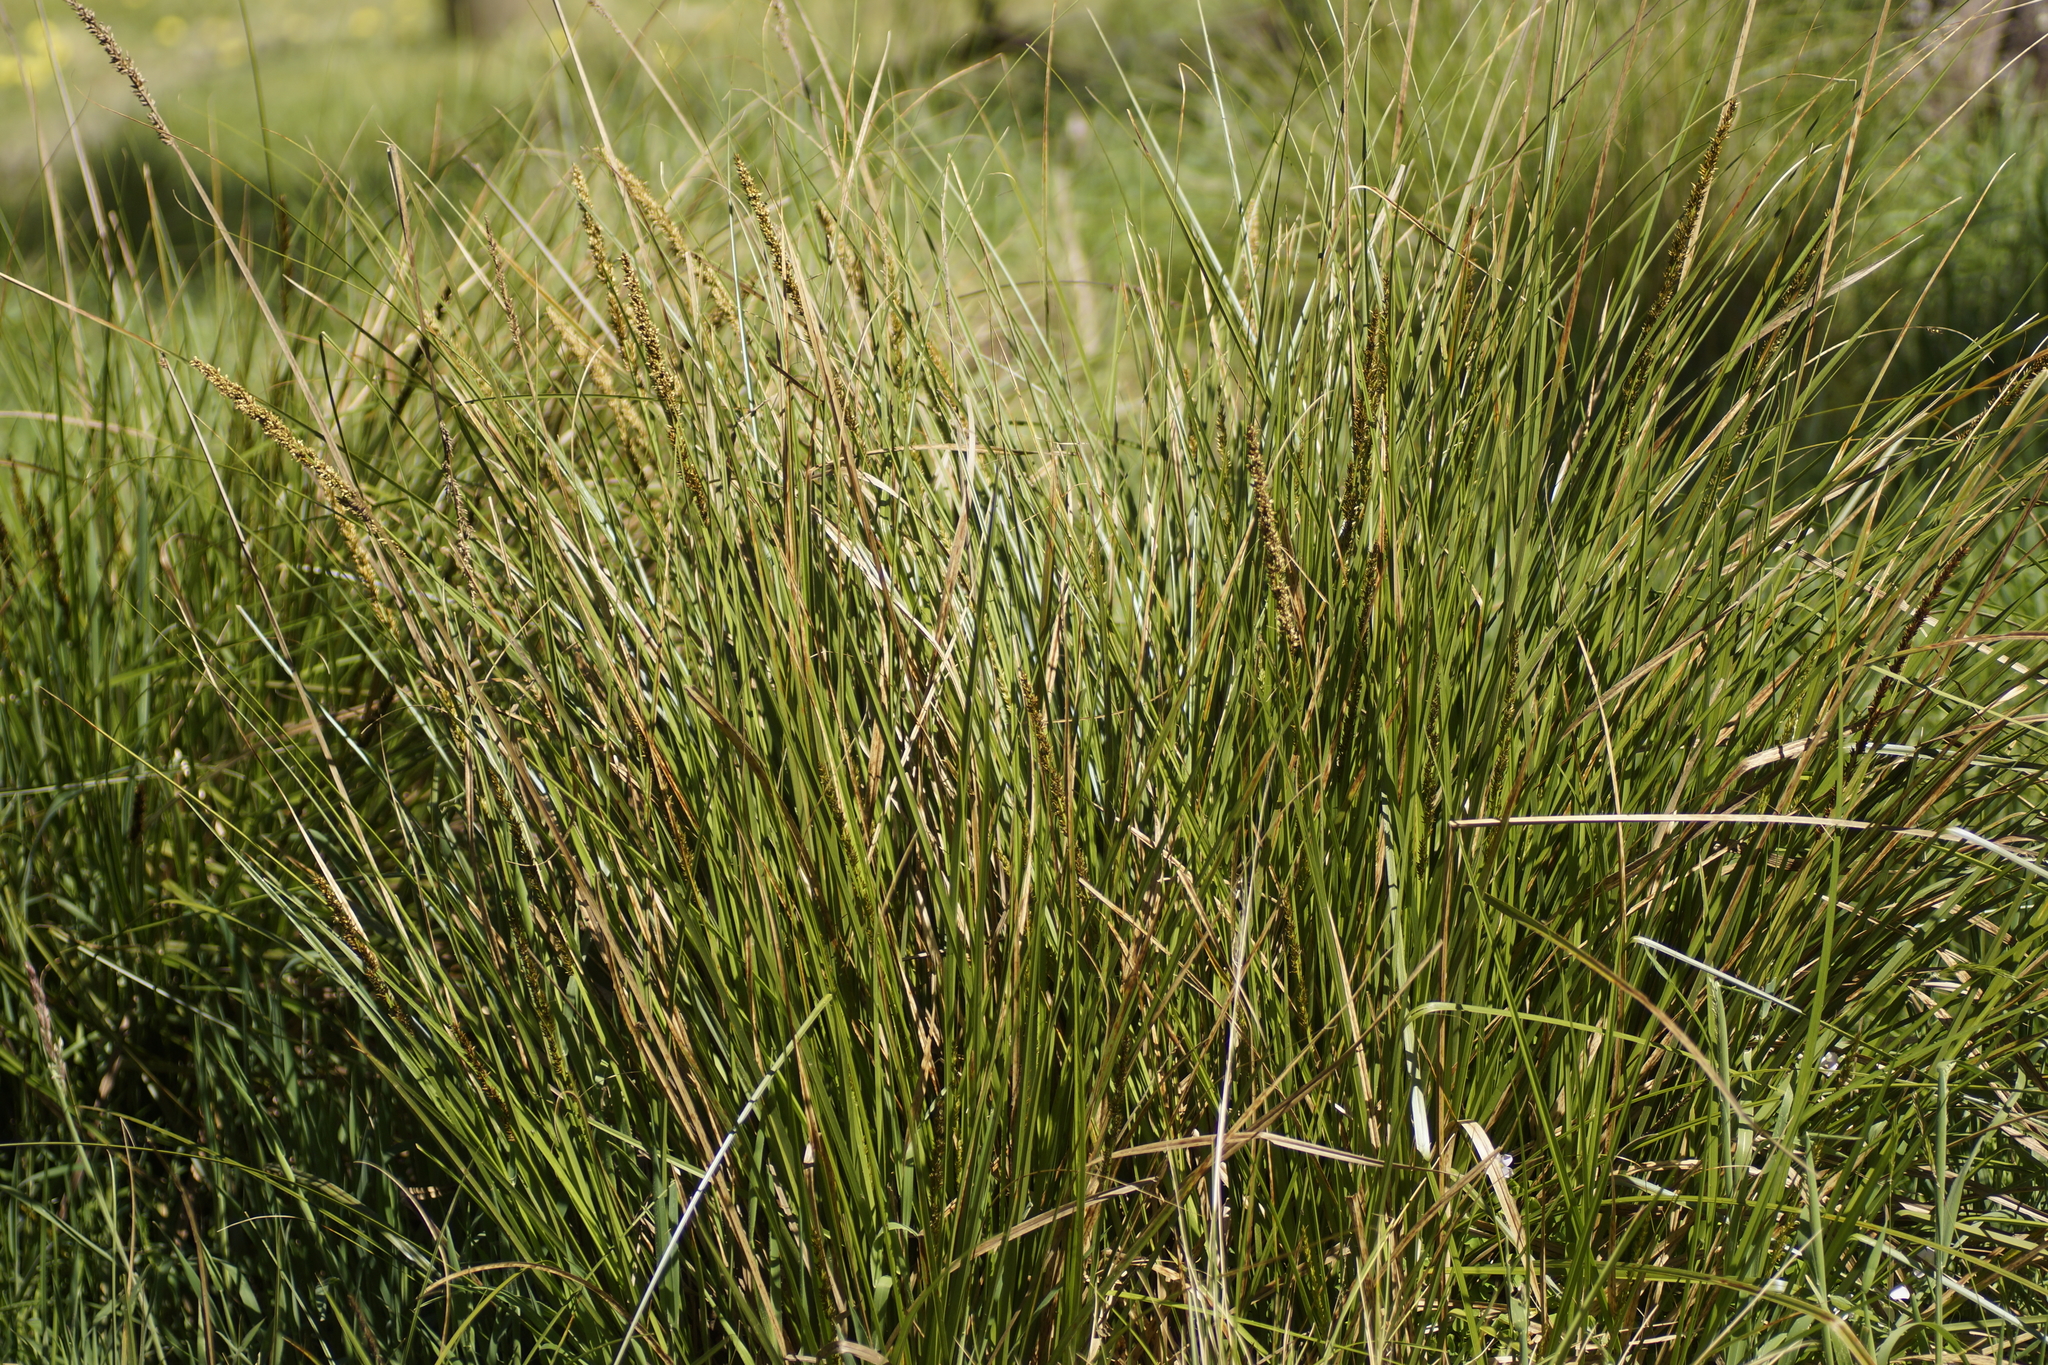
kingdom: Plantae
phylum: Tracheophyta
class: Liliopsida
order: Poales
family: Cyperaceae
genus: Carex
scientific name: Carex appressa
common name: Tussock sedge
